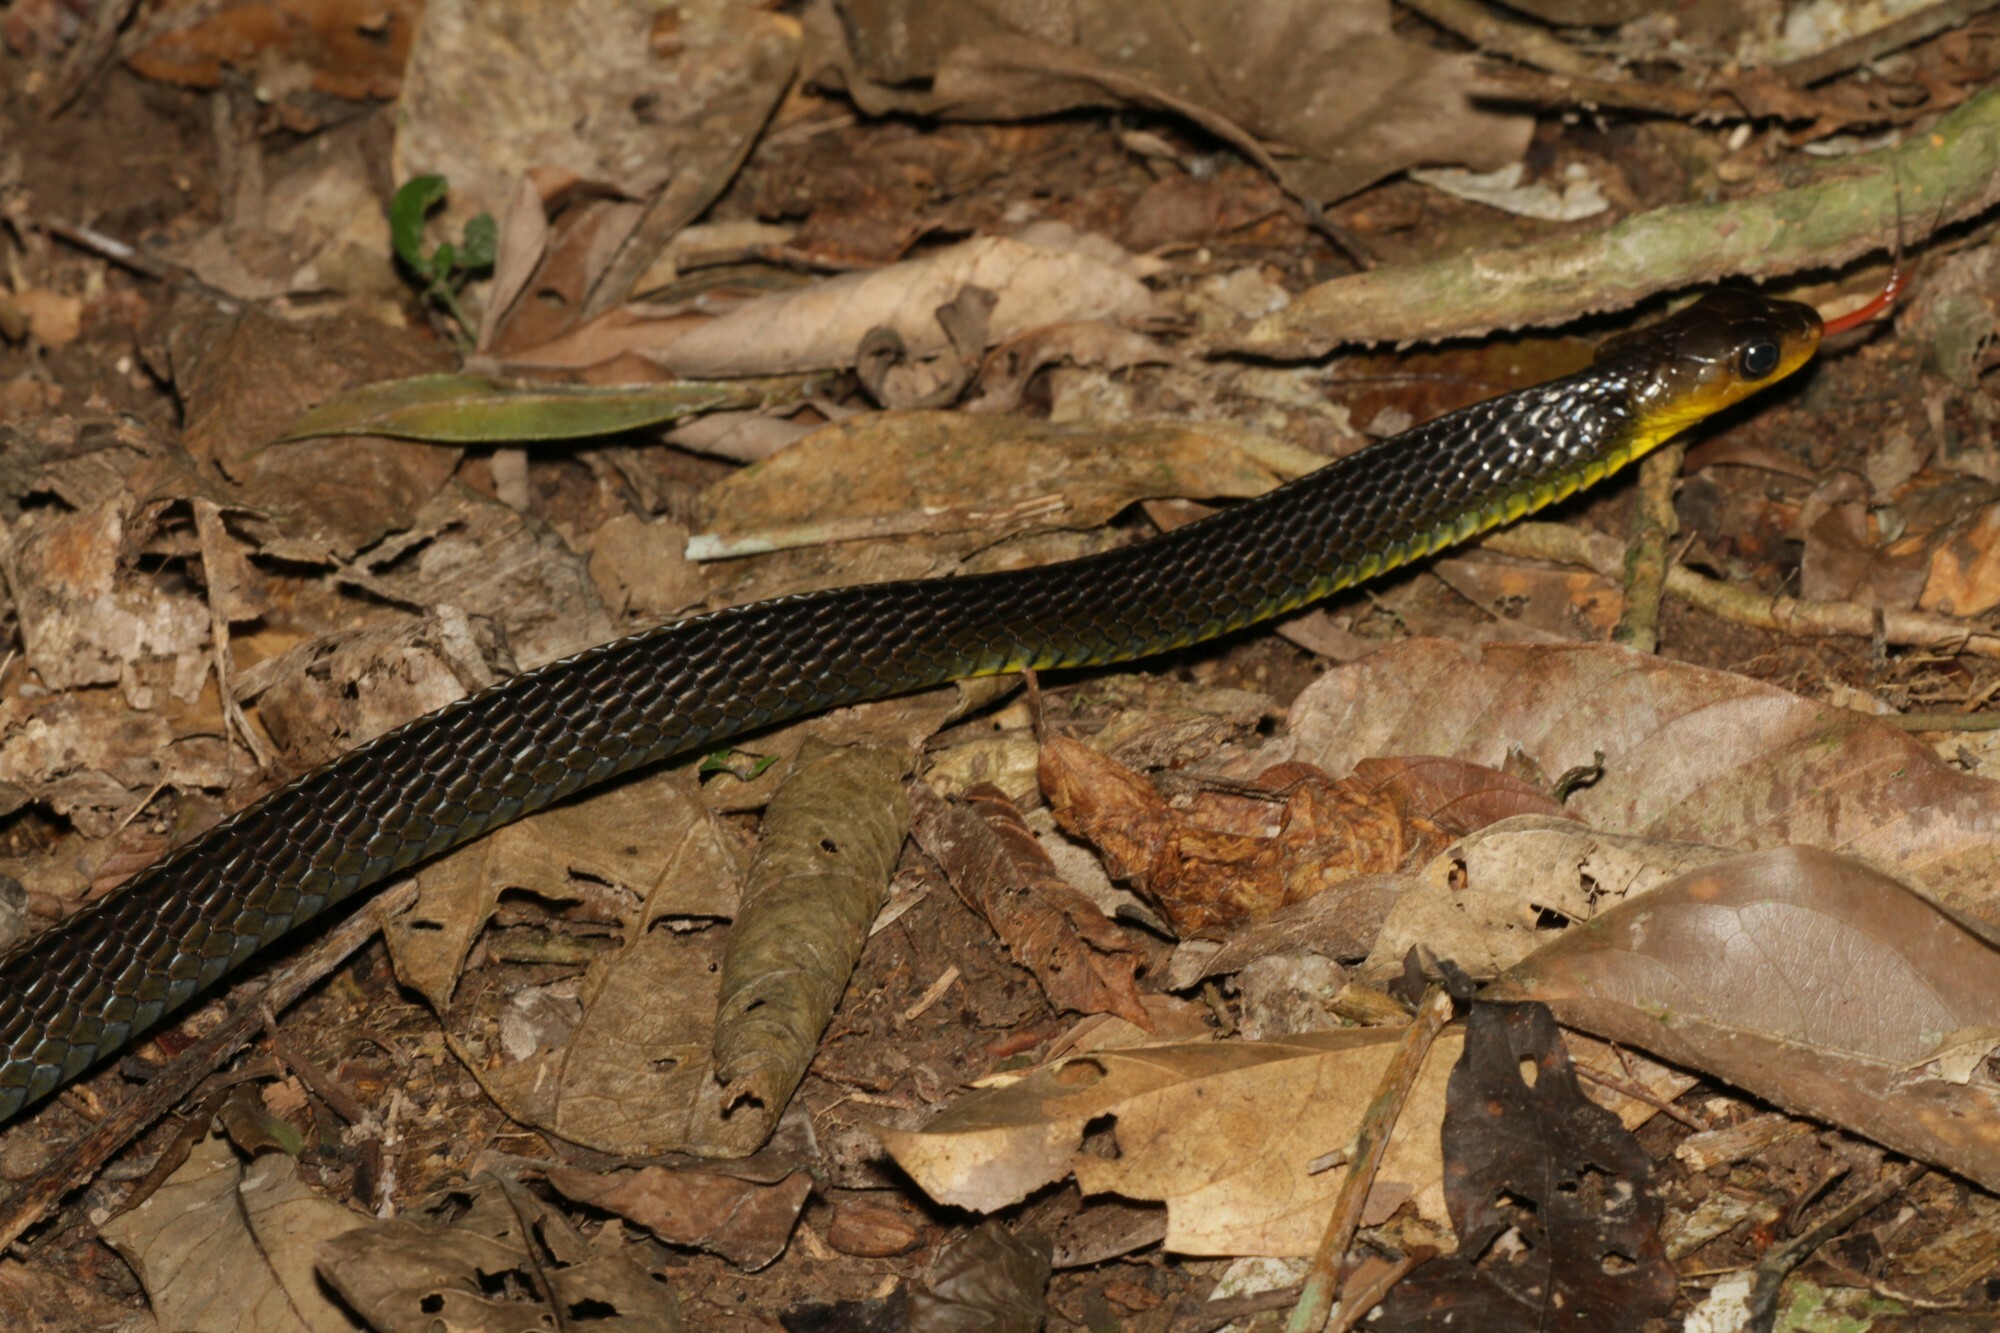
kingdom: Animalia
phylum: Chordata
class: Squamata
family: Colubridae
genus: Chironius
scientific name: Chironius multiventris
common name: South american sipo
